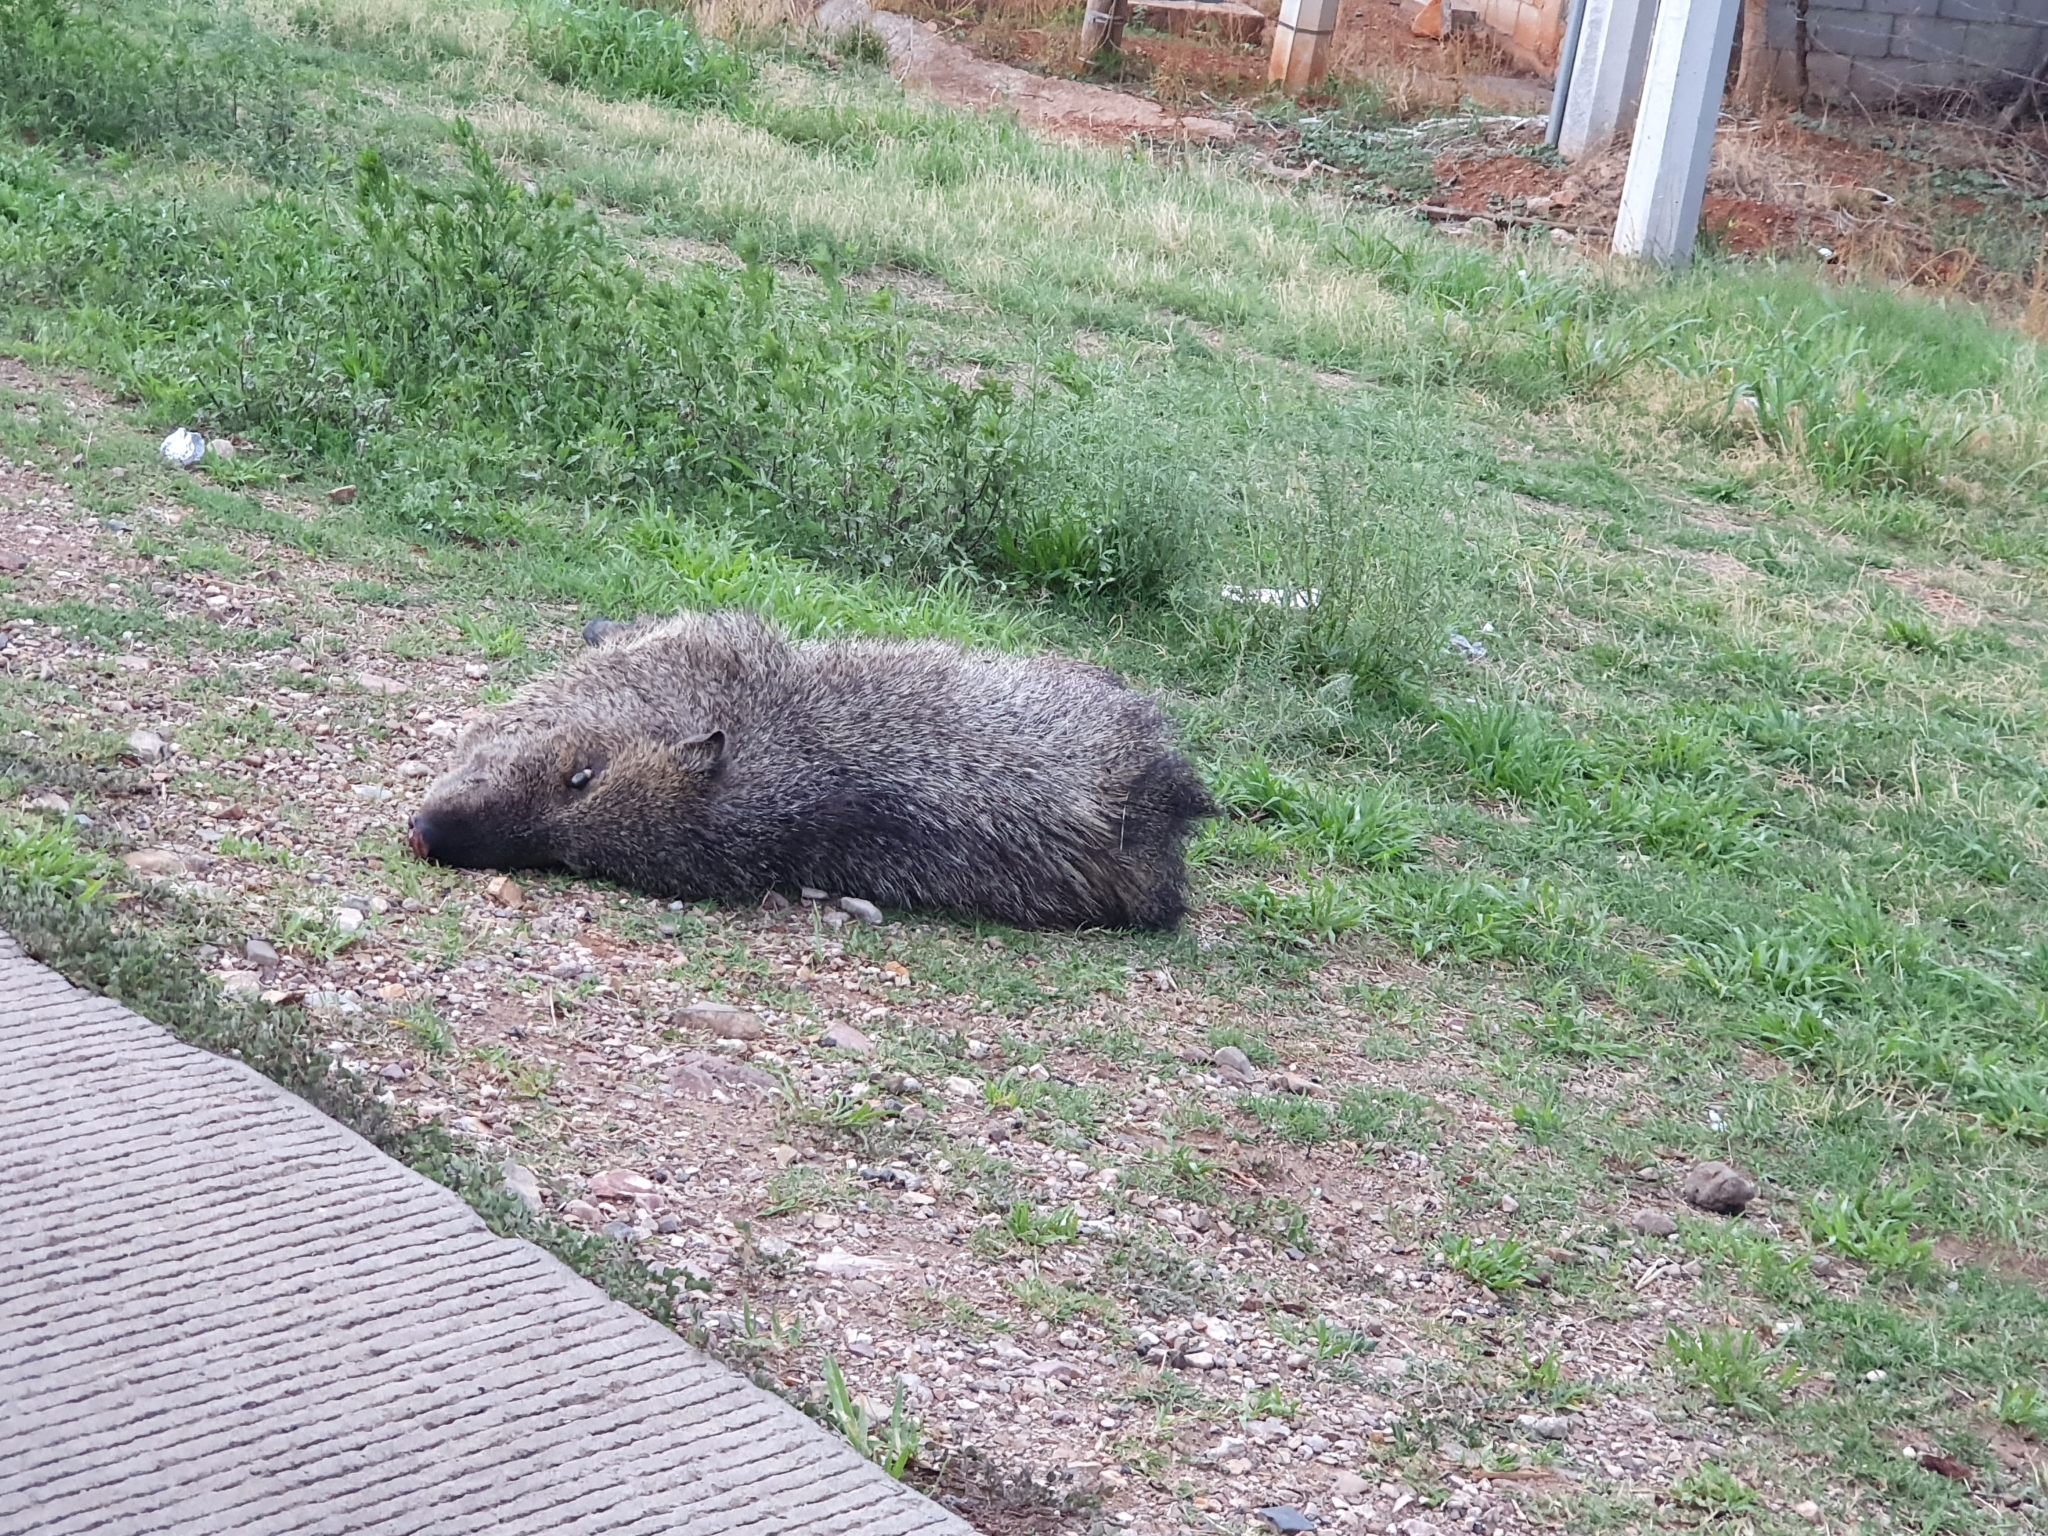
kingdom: Animalia
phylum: Chordata
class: Mammalia
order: Artiodactyla
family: Tayassuidae
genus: Pecari
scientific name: Pecari tajacu
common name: Collared peccary
